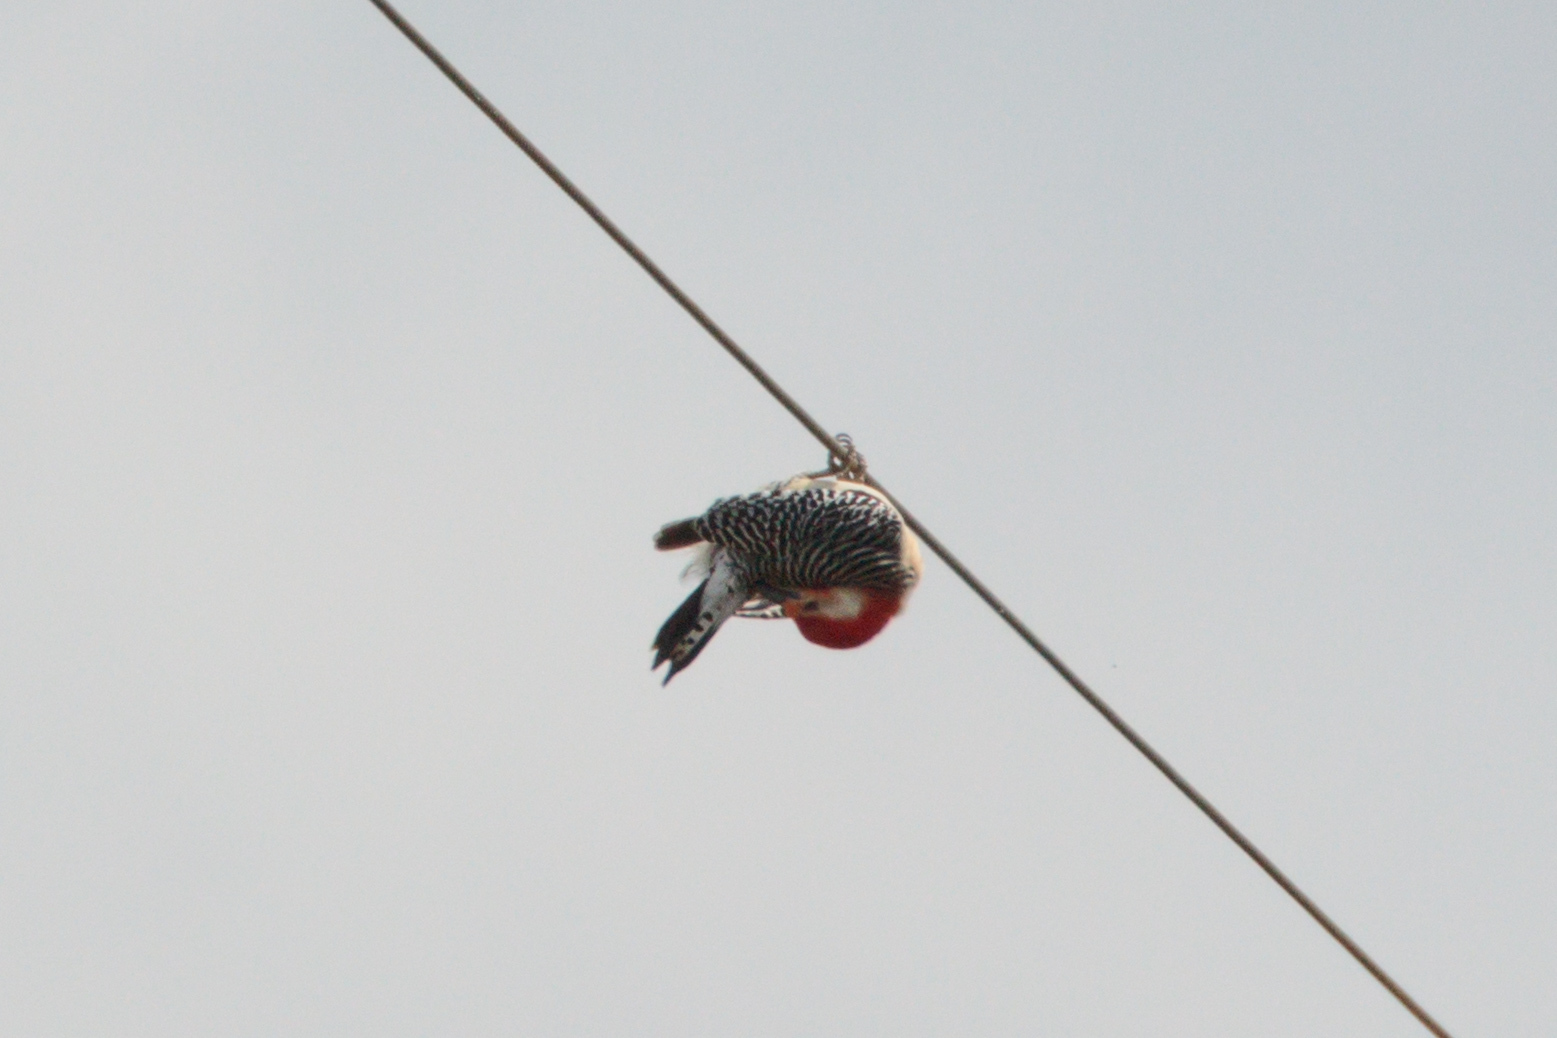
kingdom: Animalia
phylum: Chordata
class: Aves
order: Piciformes
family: Picidae
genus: Melanerpes
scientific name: Melanerpes carolinus
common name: Red-bellied woodpecker
